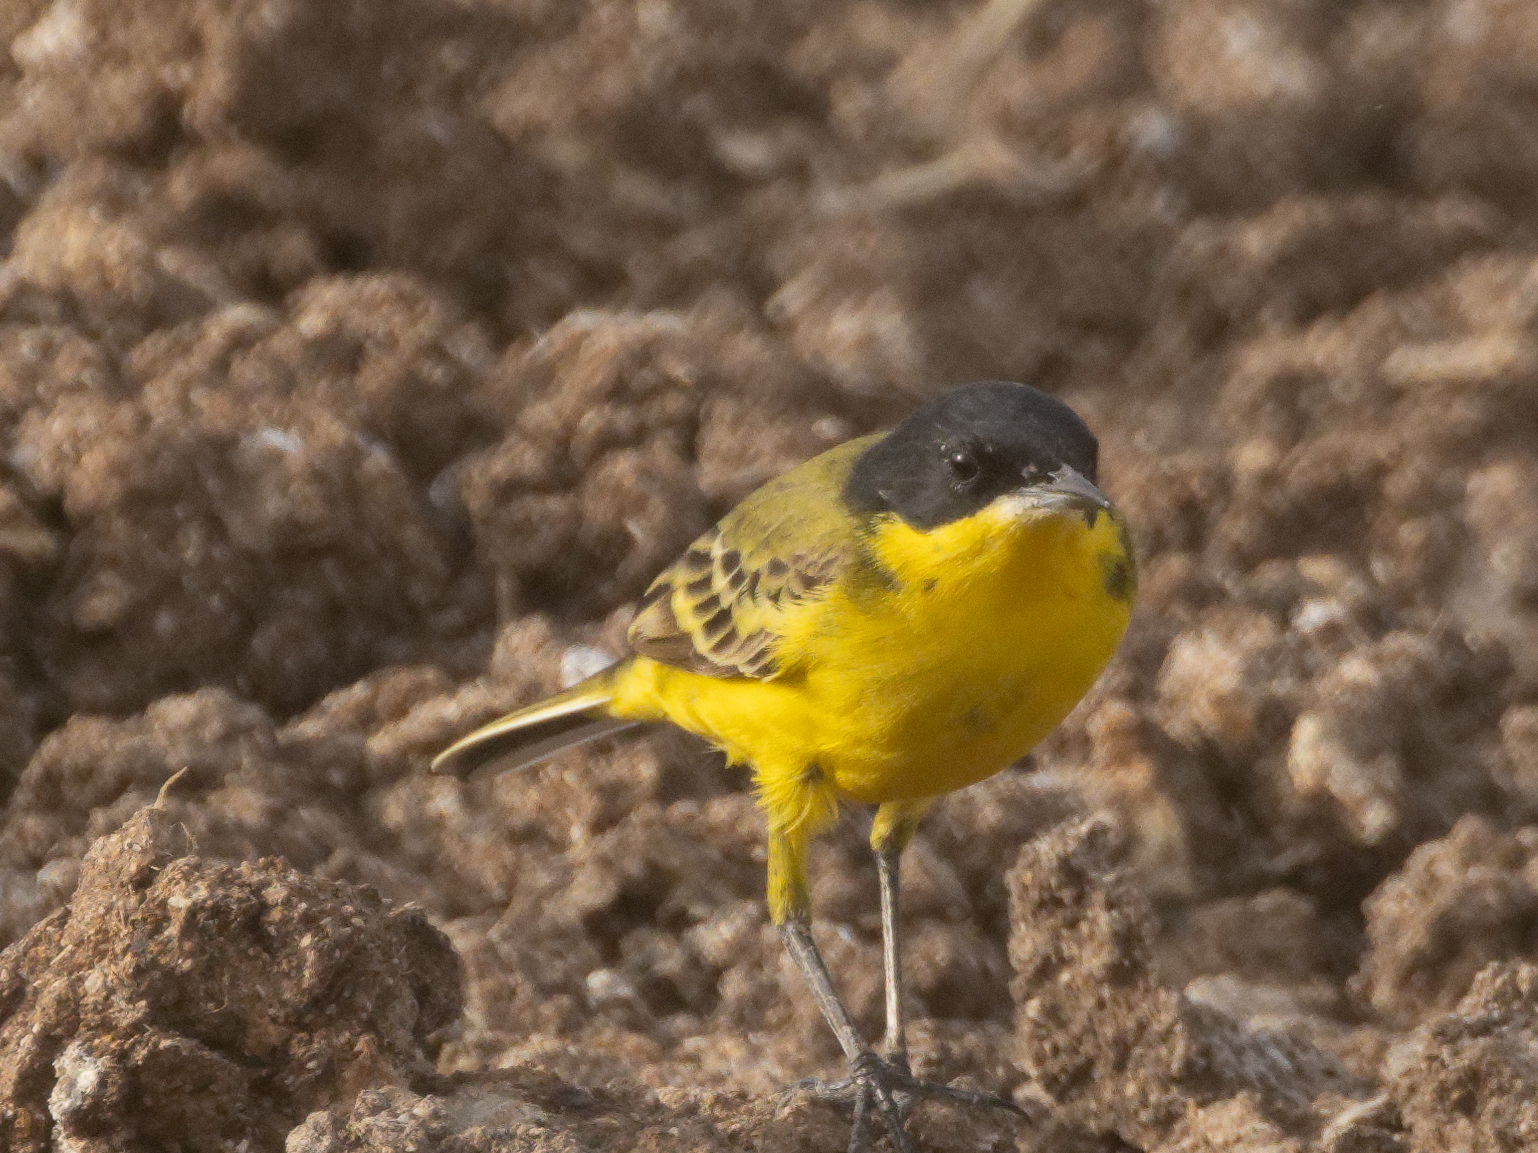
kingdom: Animalia
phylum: Chordata
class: Aves
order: Passeriformes
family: Motacillidae
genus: Motacilla
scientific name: Motacilla flava
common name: Western yellow wagtail
